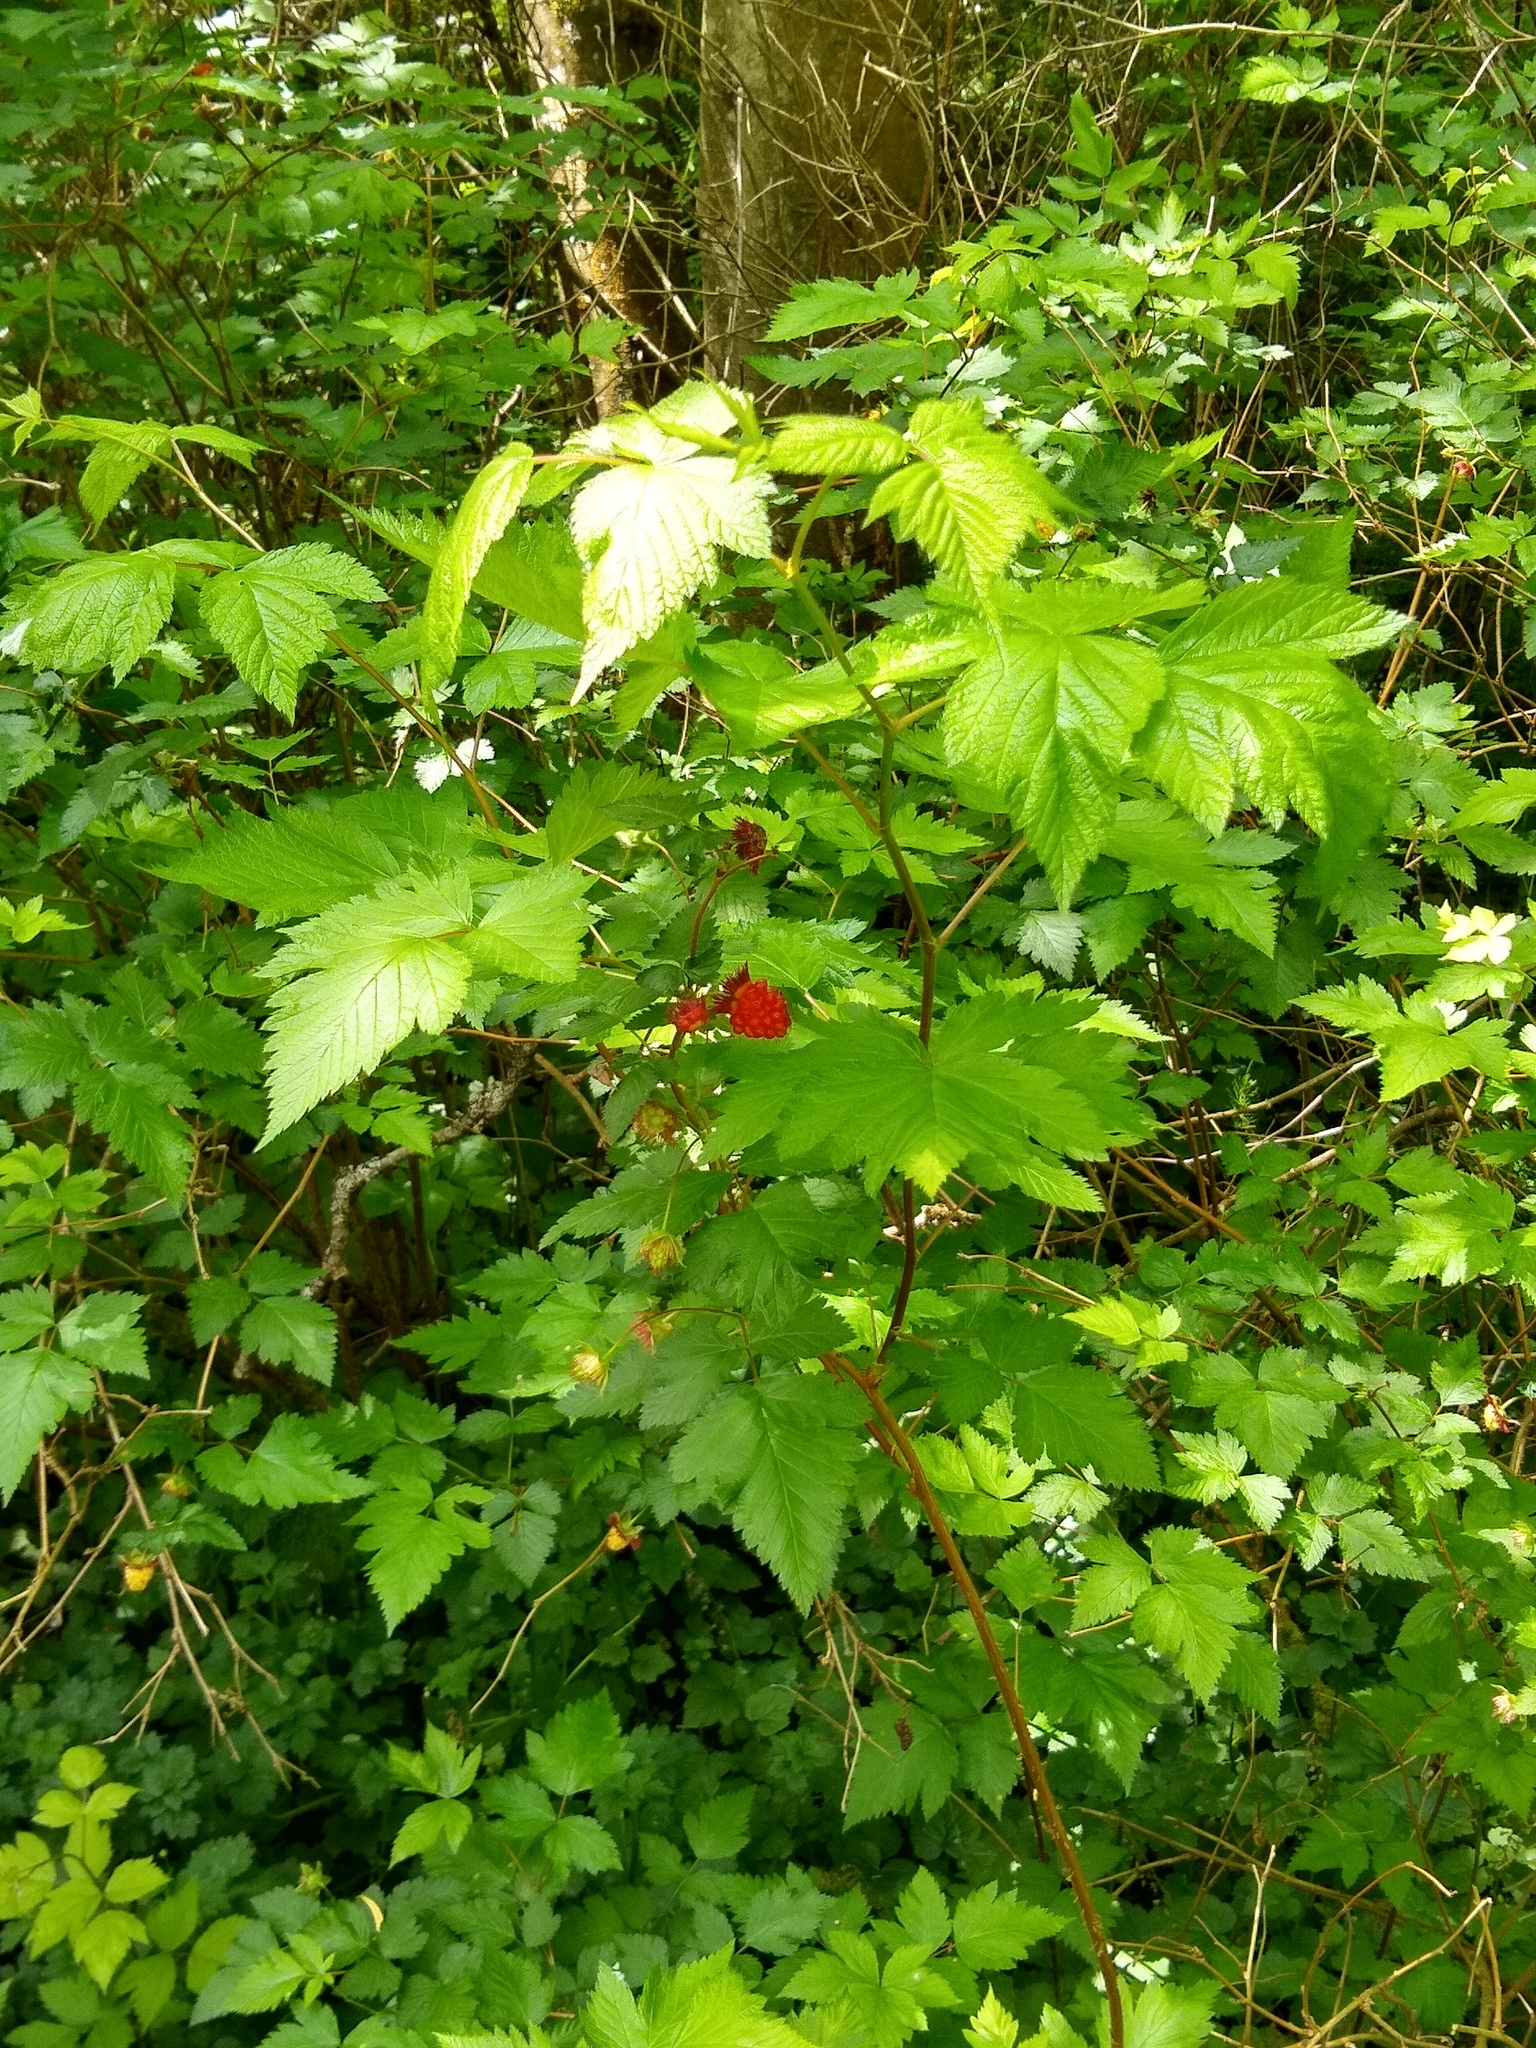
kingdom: Plantae
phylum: Tracheophyta
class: Magnoliopsida
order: Rosales
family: Rosaceae
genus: Rubus
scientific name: Rubus spectabilis
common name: Salmonberry
